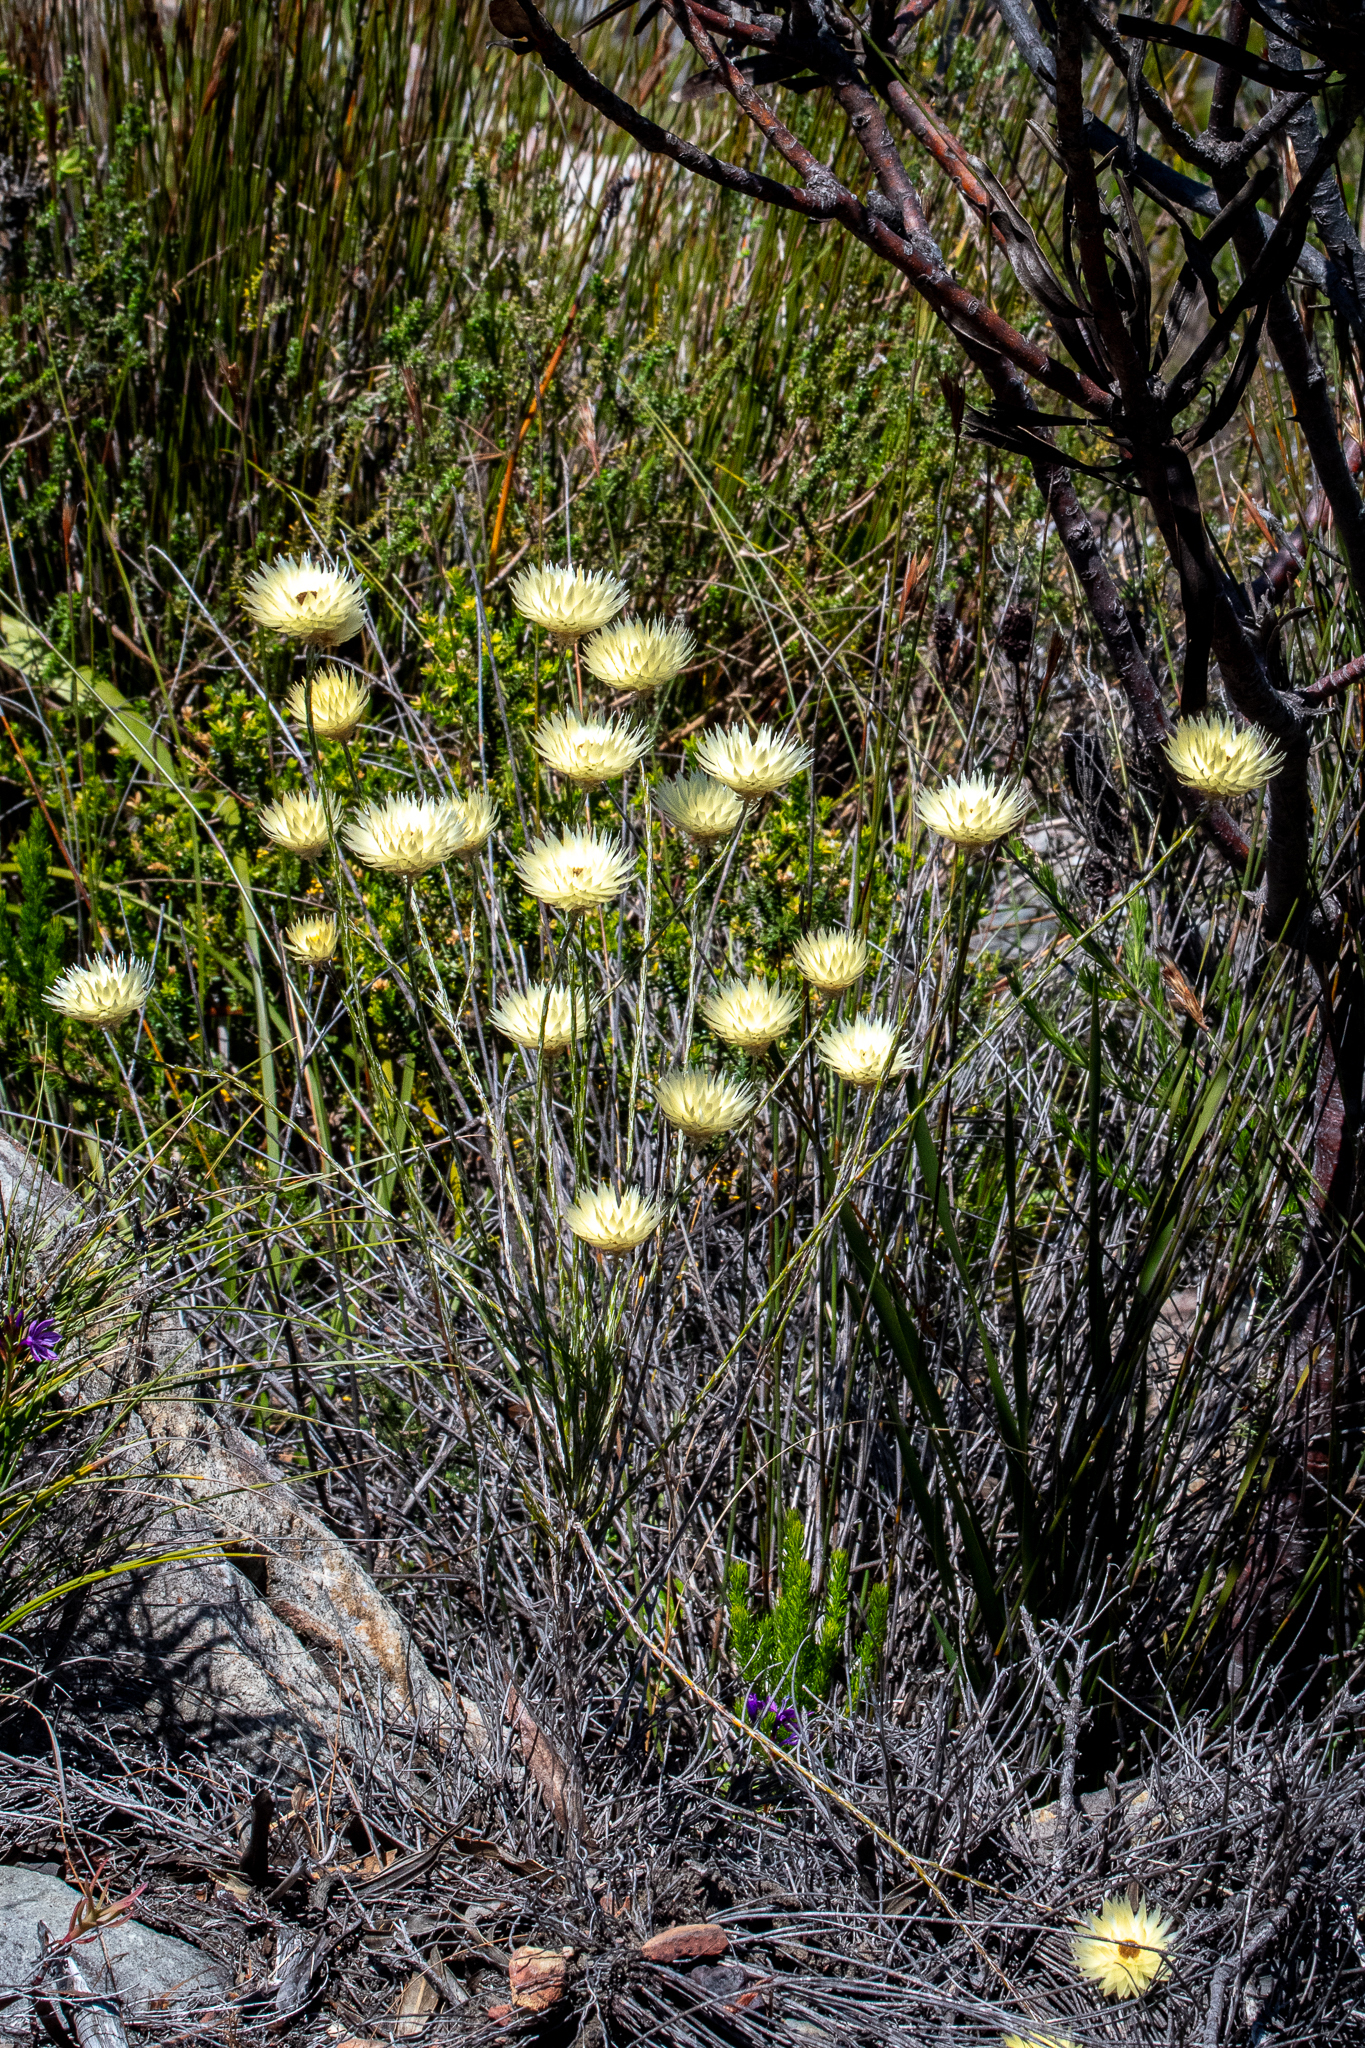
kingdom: Plantae
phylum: Tracheophyta
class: Magnoliopsida
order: Asterales
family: Asteraceae
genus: Edmondia
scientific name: Edmondia sesamoides
